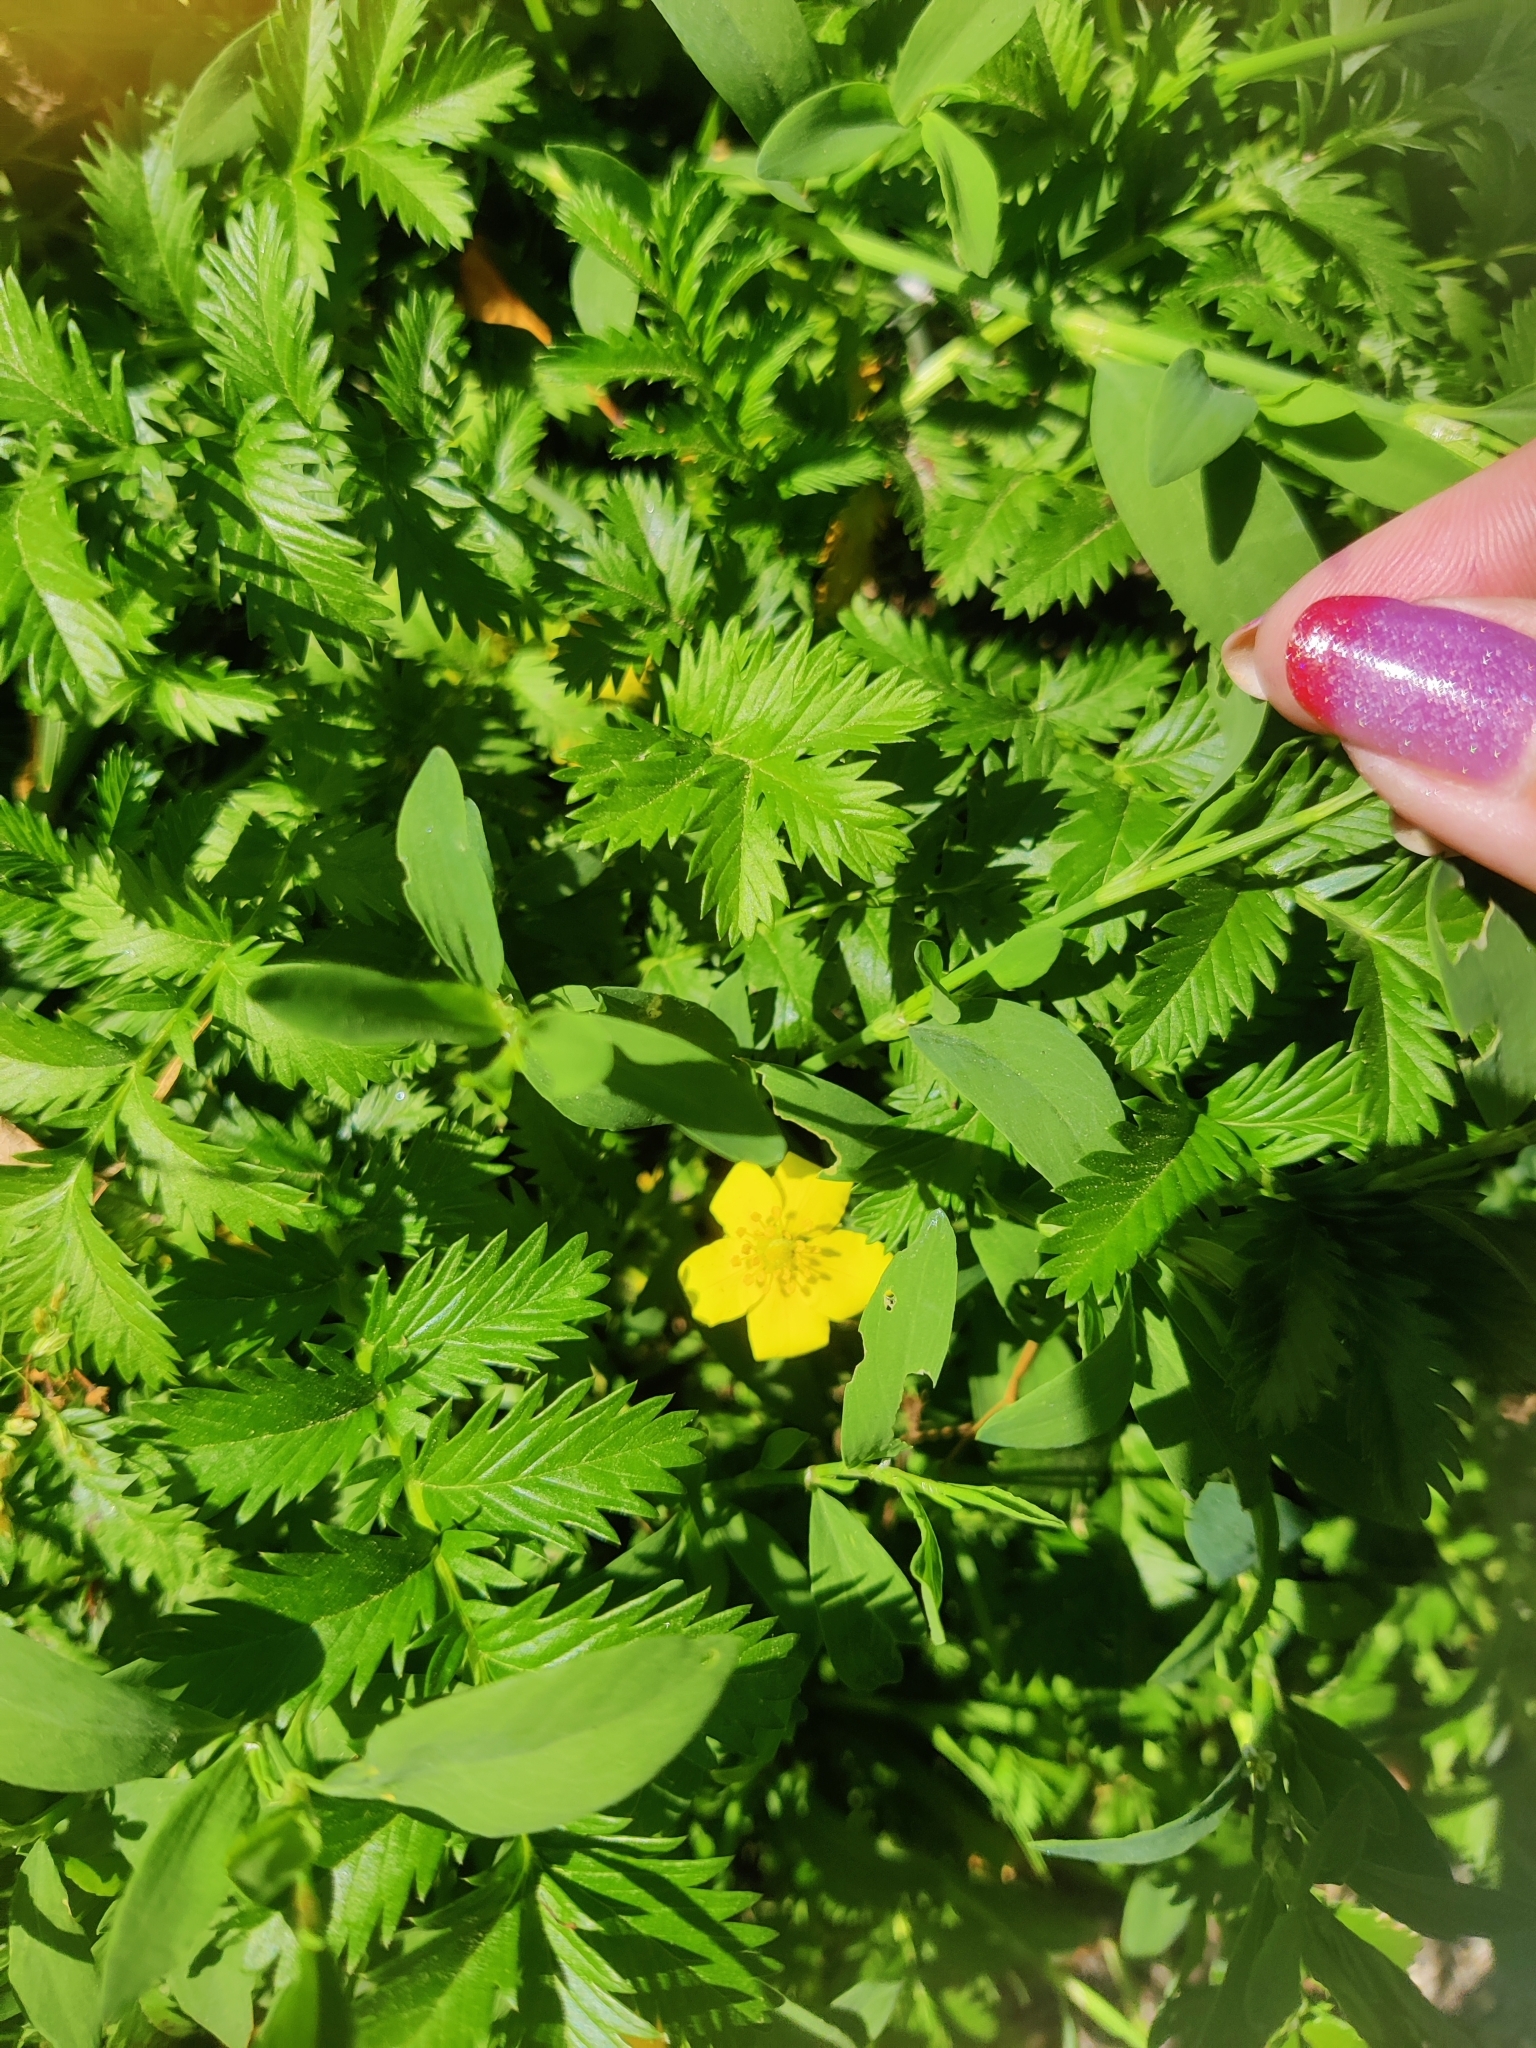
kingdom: Plantae
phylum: Tracheophyta
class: Magnoliopsida
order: Rosales
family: Rosaceae
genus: Argentina
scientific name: Argentina anserina
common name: Common silverweed
